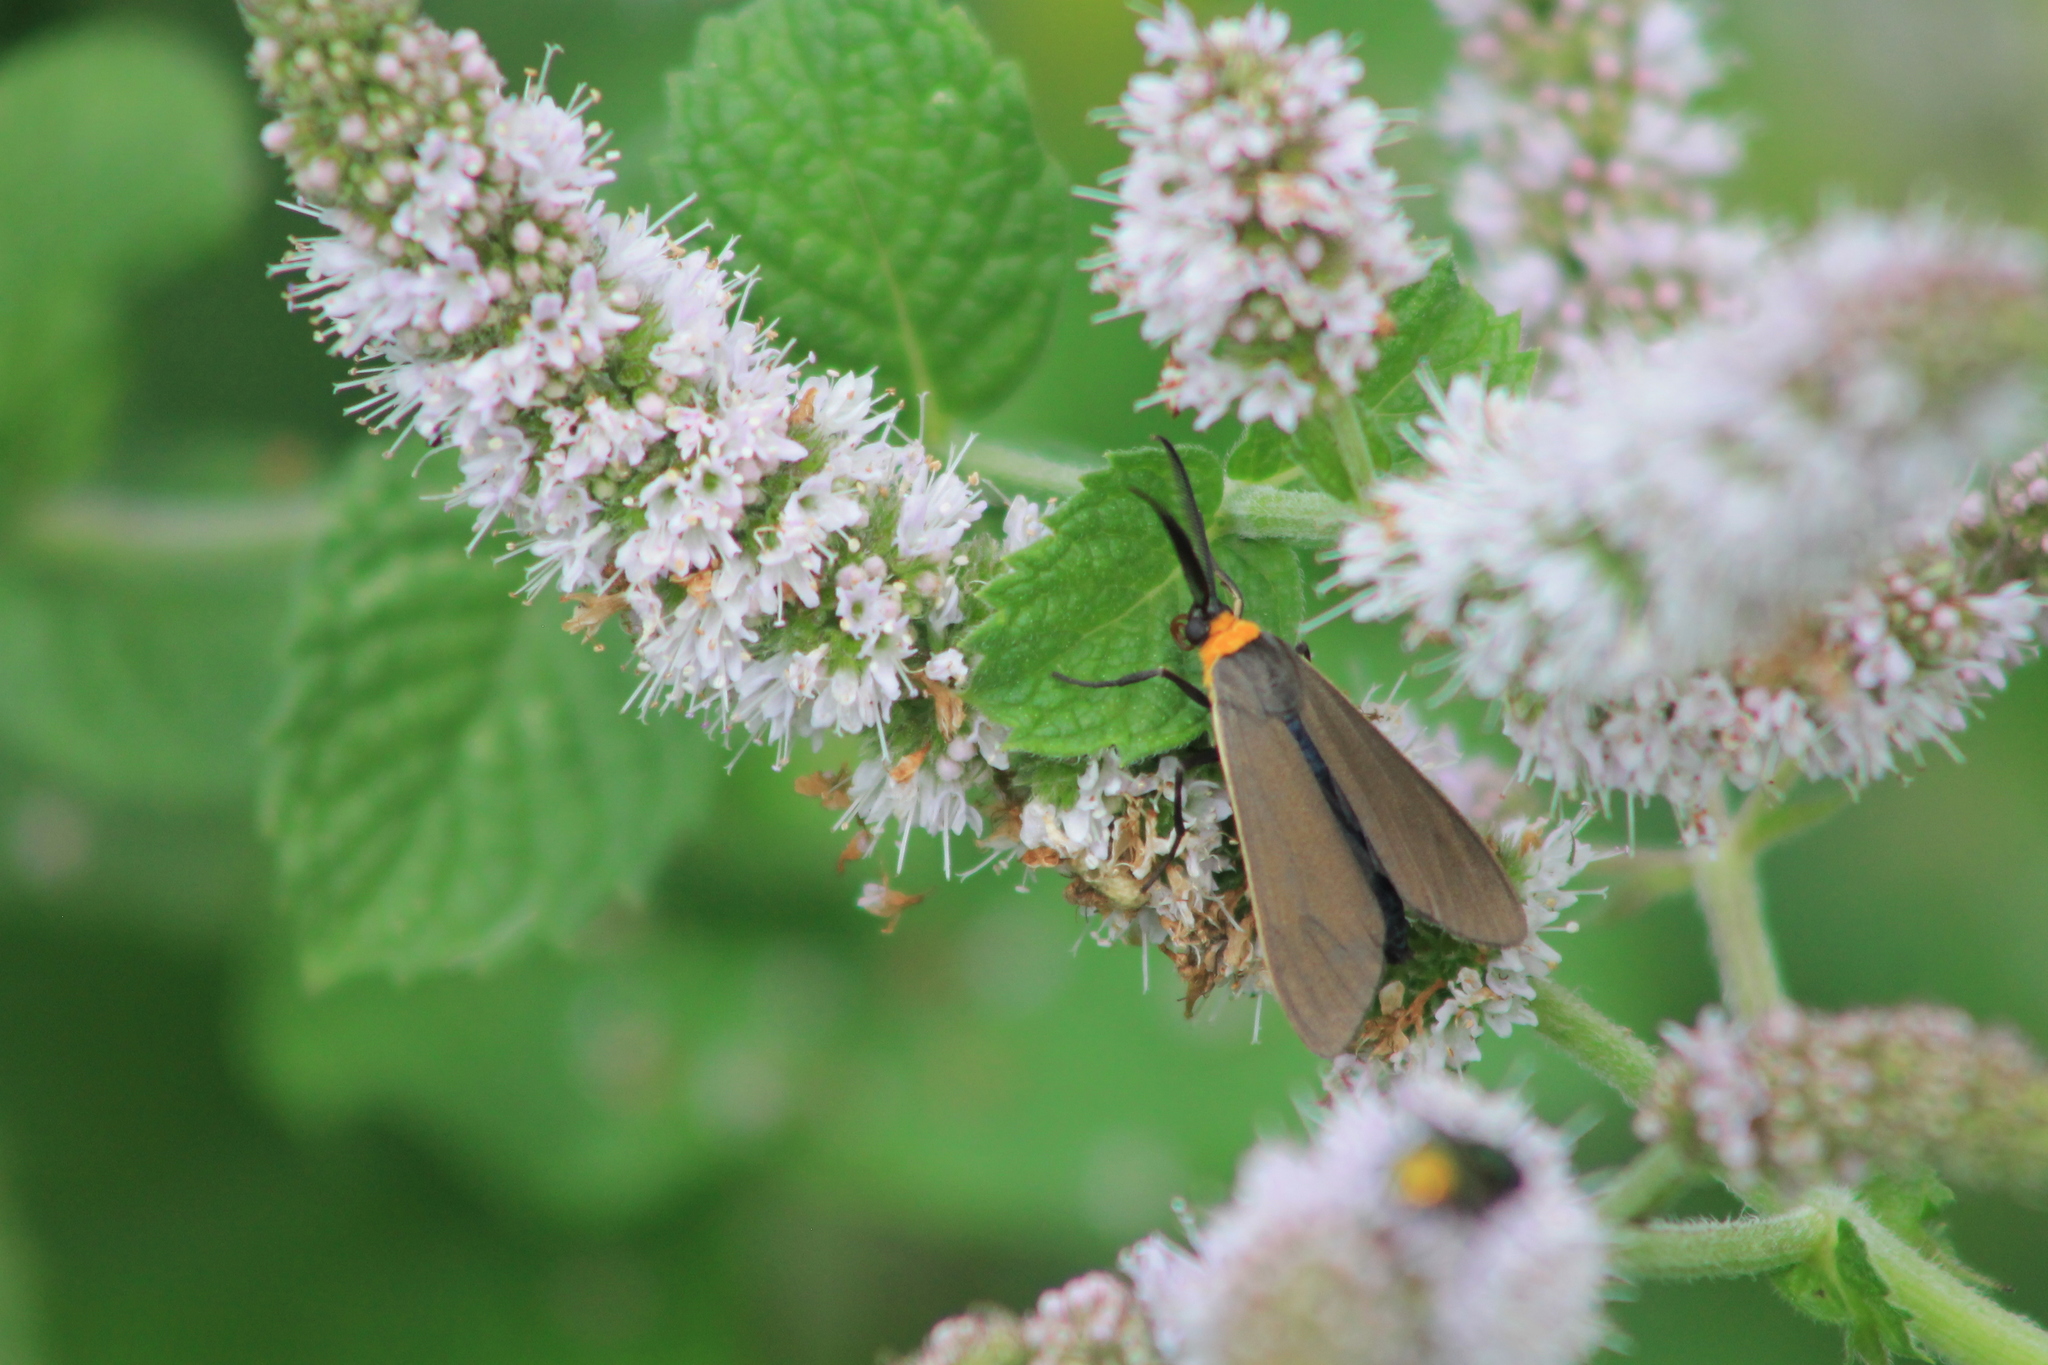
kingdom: Animalia
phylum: Arthropoda
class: Insecta
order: Lepidoptera
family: Erebidae
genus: Cisseps
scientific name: Cisseps fulvicollis
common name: Yellow-collared scape moth
